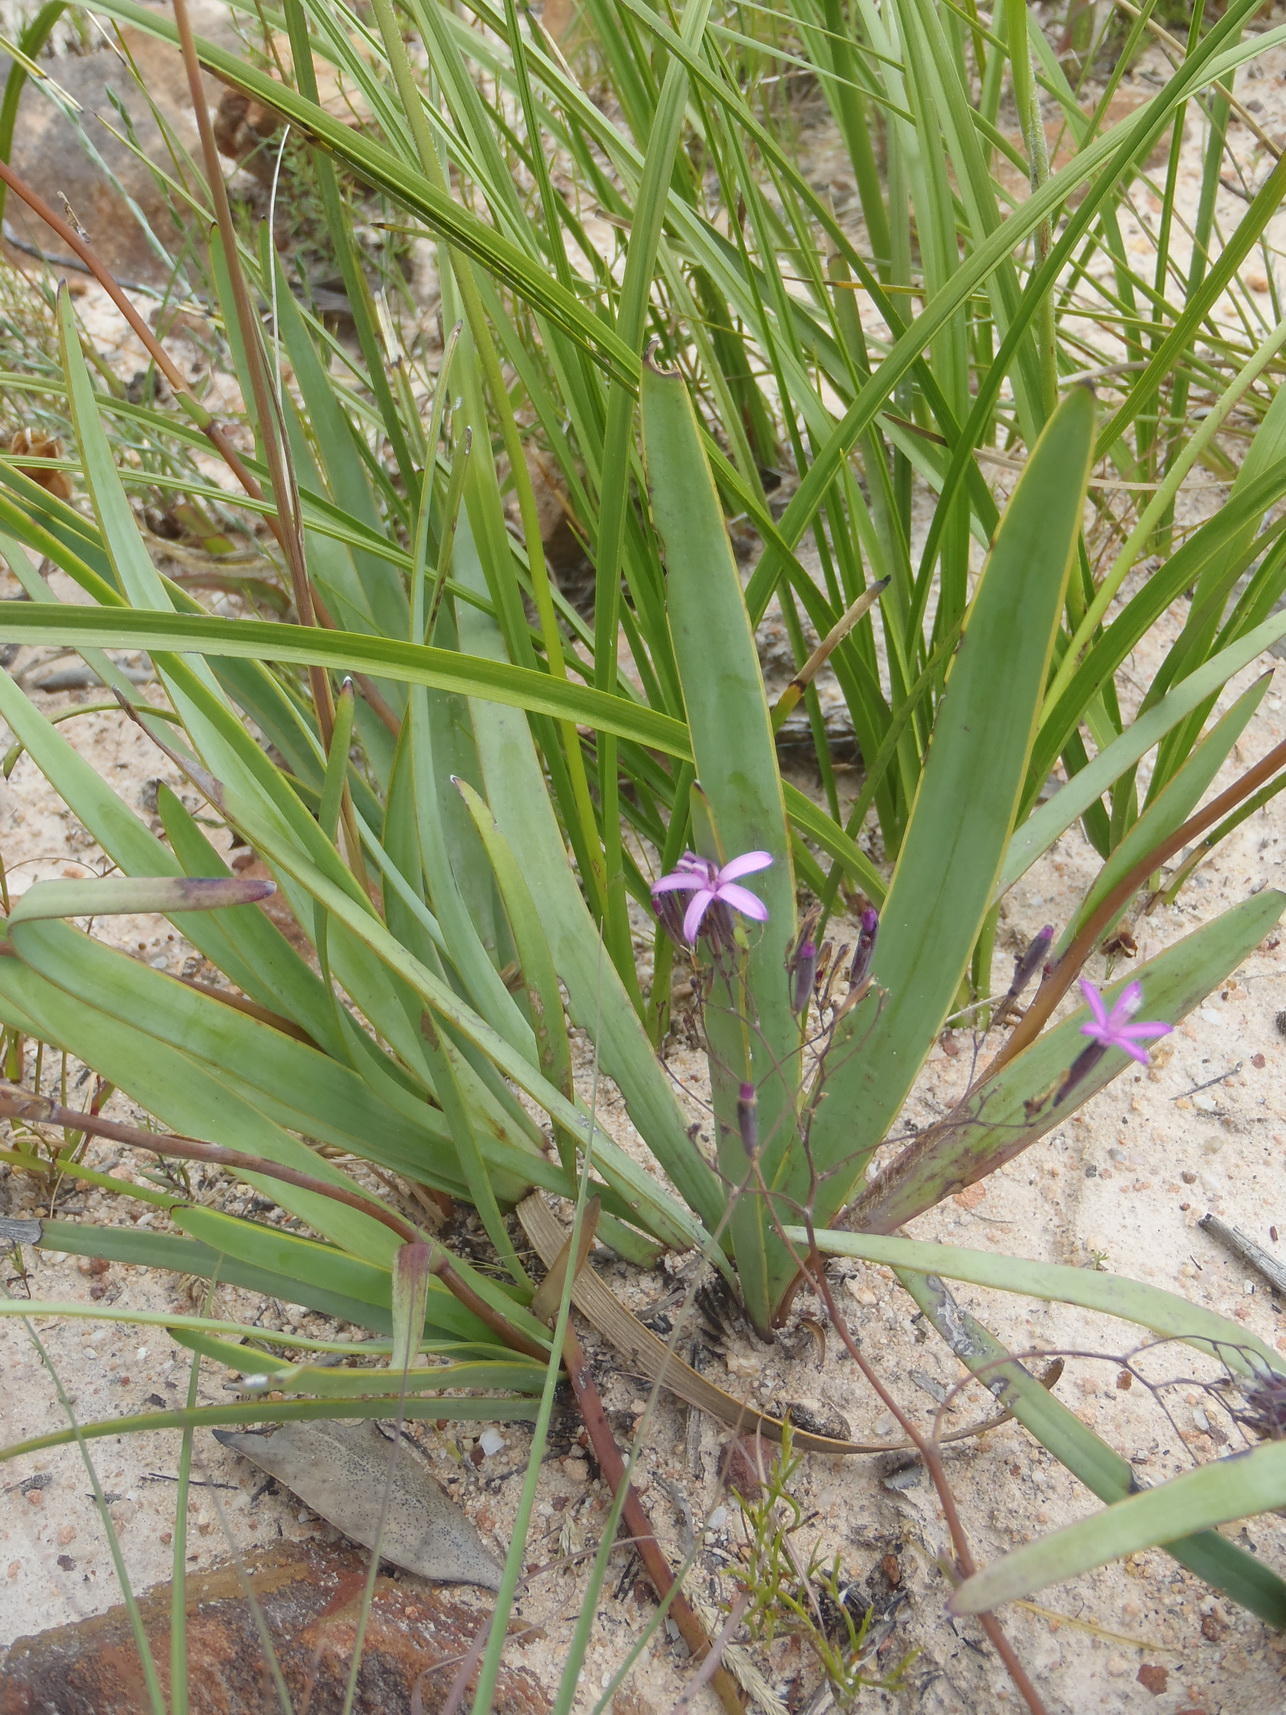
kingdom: Plantae
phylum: Tracheophyta
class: Magnoliopsida
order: Asterales
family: Asteraceae
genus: Corymbium
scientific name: Corymbium glabrum
